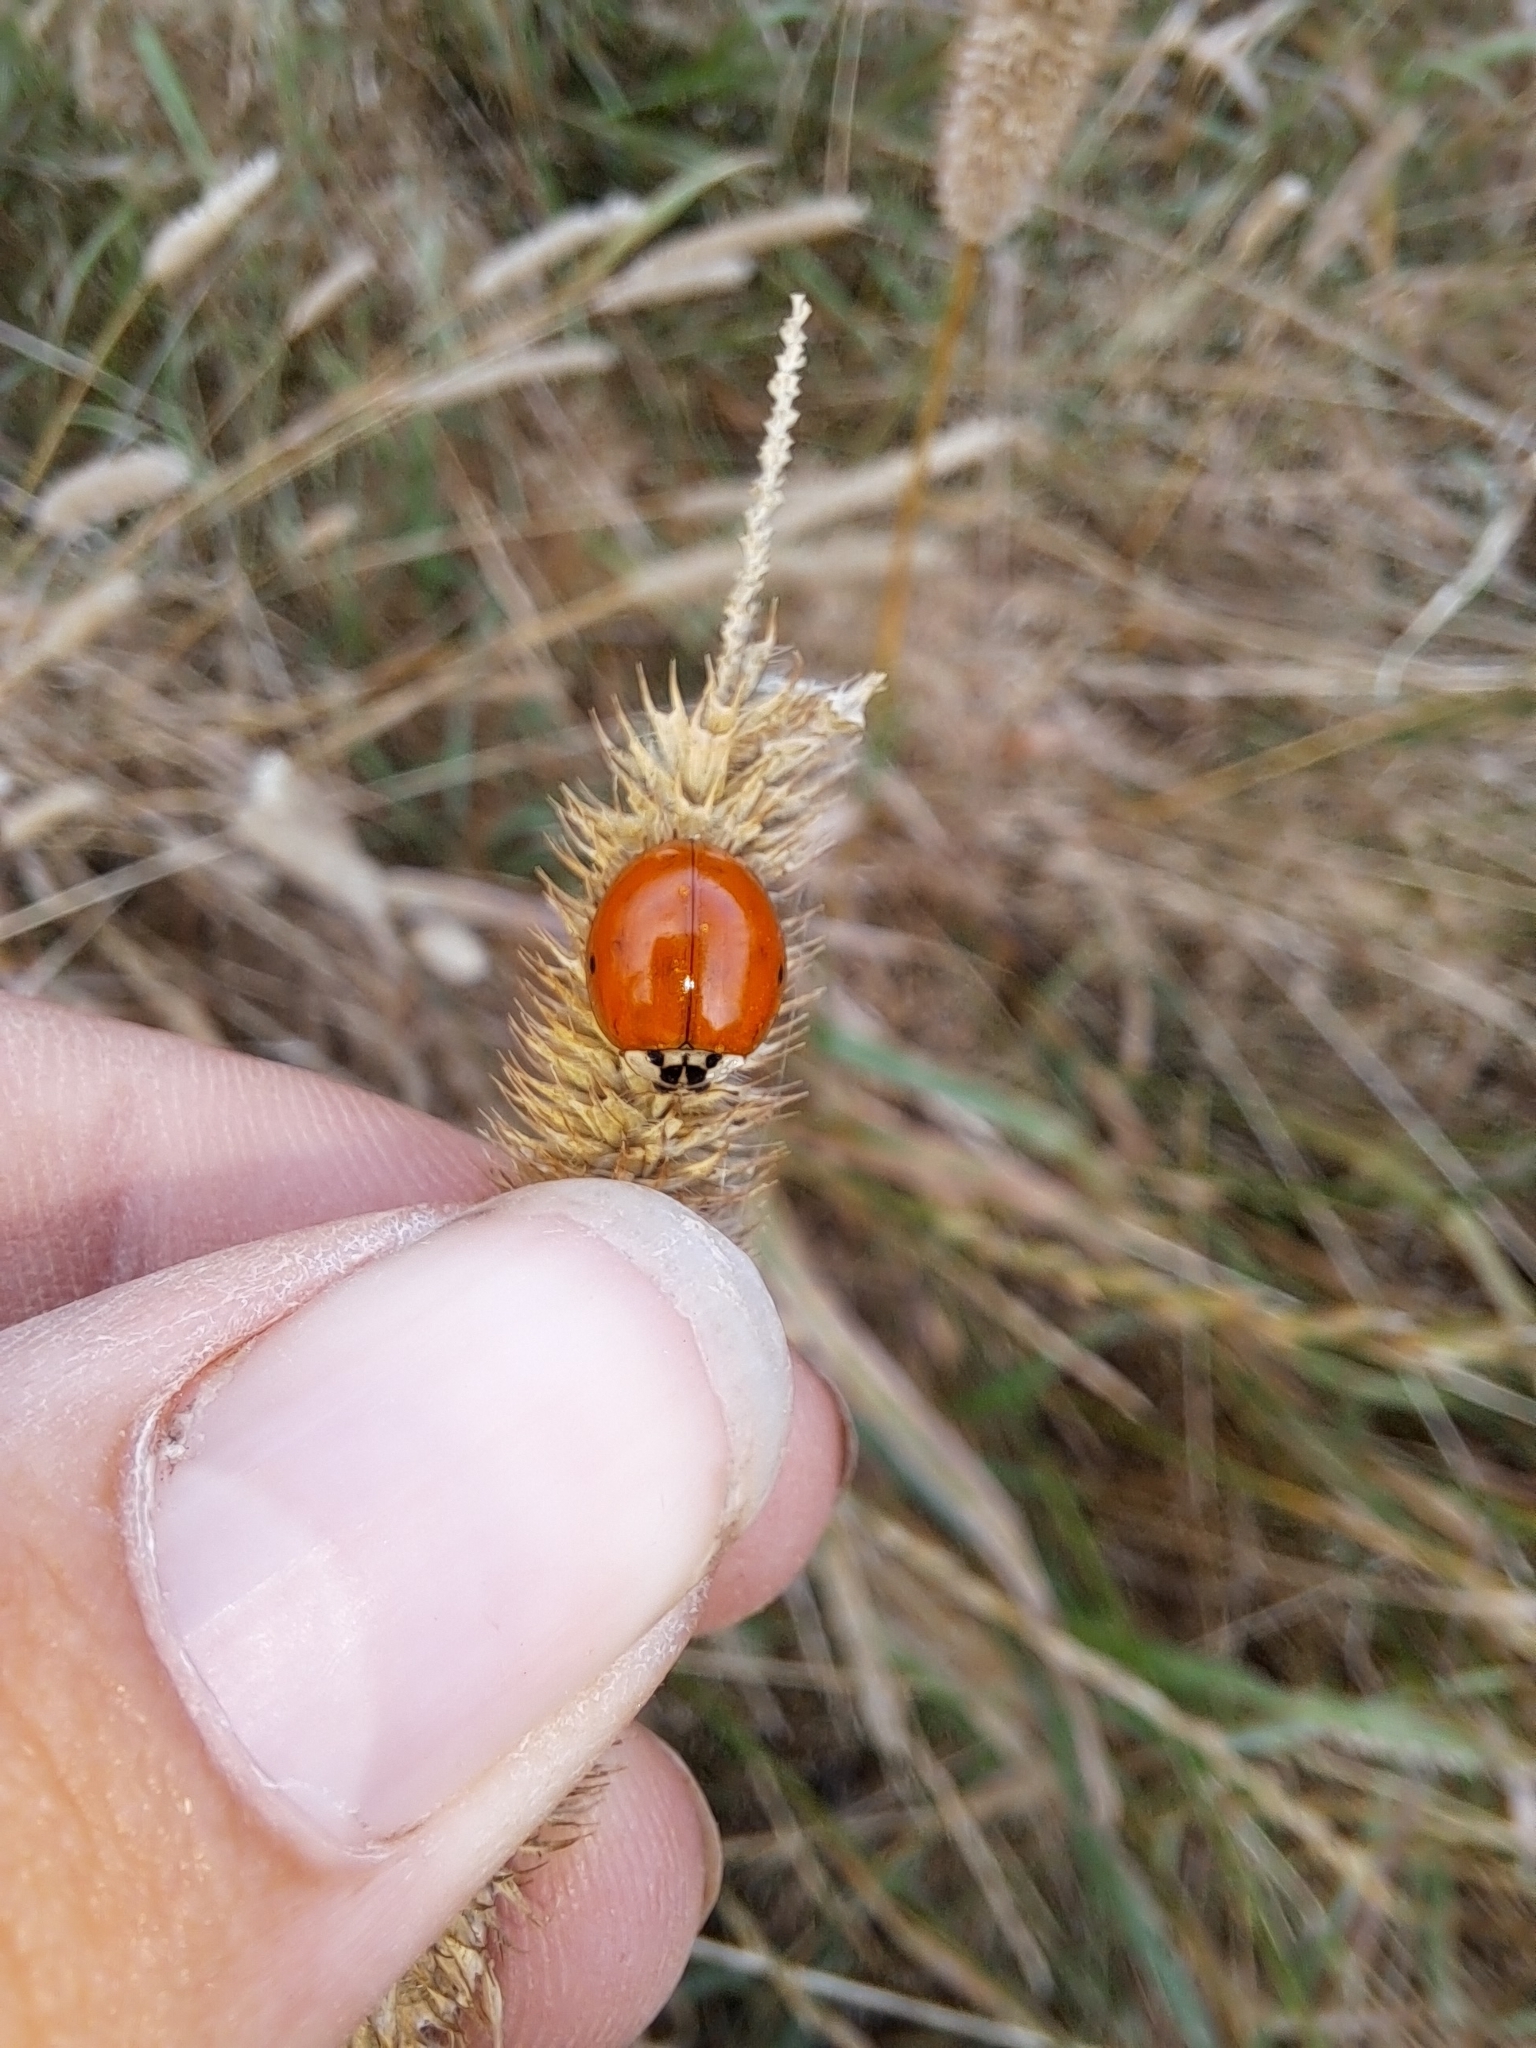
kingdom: Animalia
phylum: Arthropoda
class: Insecta
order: Coleoptera
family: Coccinellidae
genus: Harmonia
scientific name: Harmonia axyridis
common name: Harlequin ladybird
